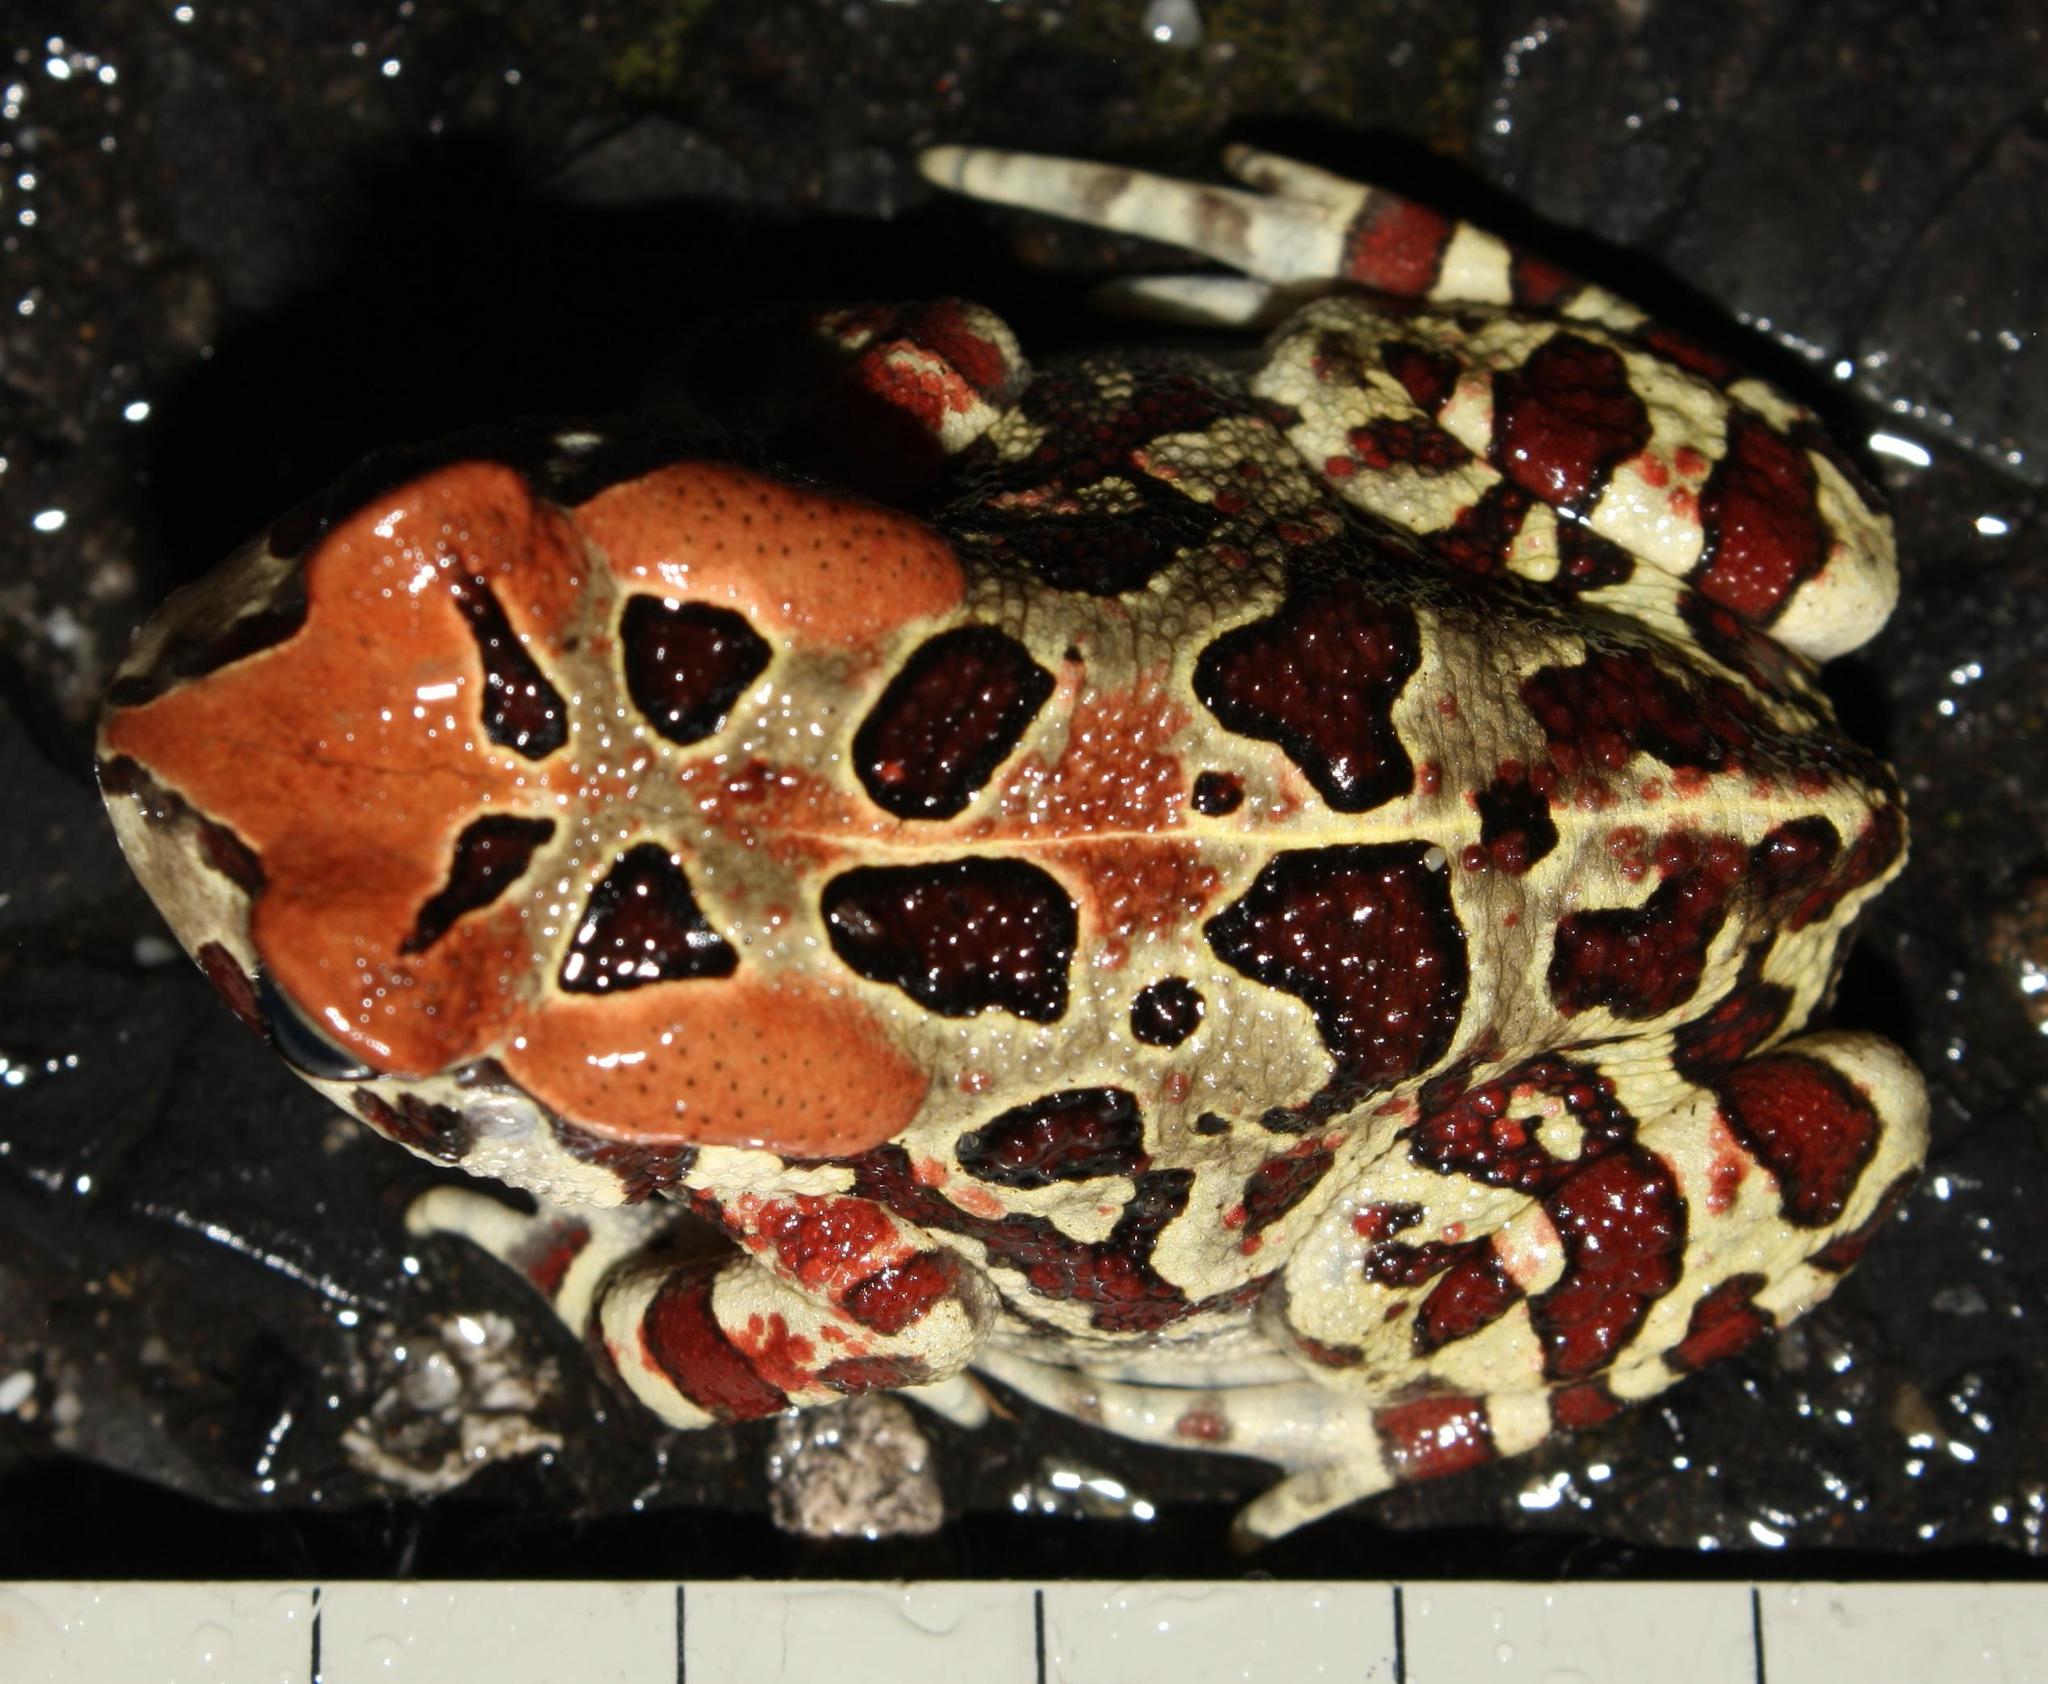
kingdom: Animalia
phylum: Chordata
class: Amphibia
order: Anura
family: Bufonidae
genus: Sclerophrys
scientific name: Sclerophrys pantherina
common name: Panther toad
